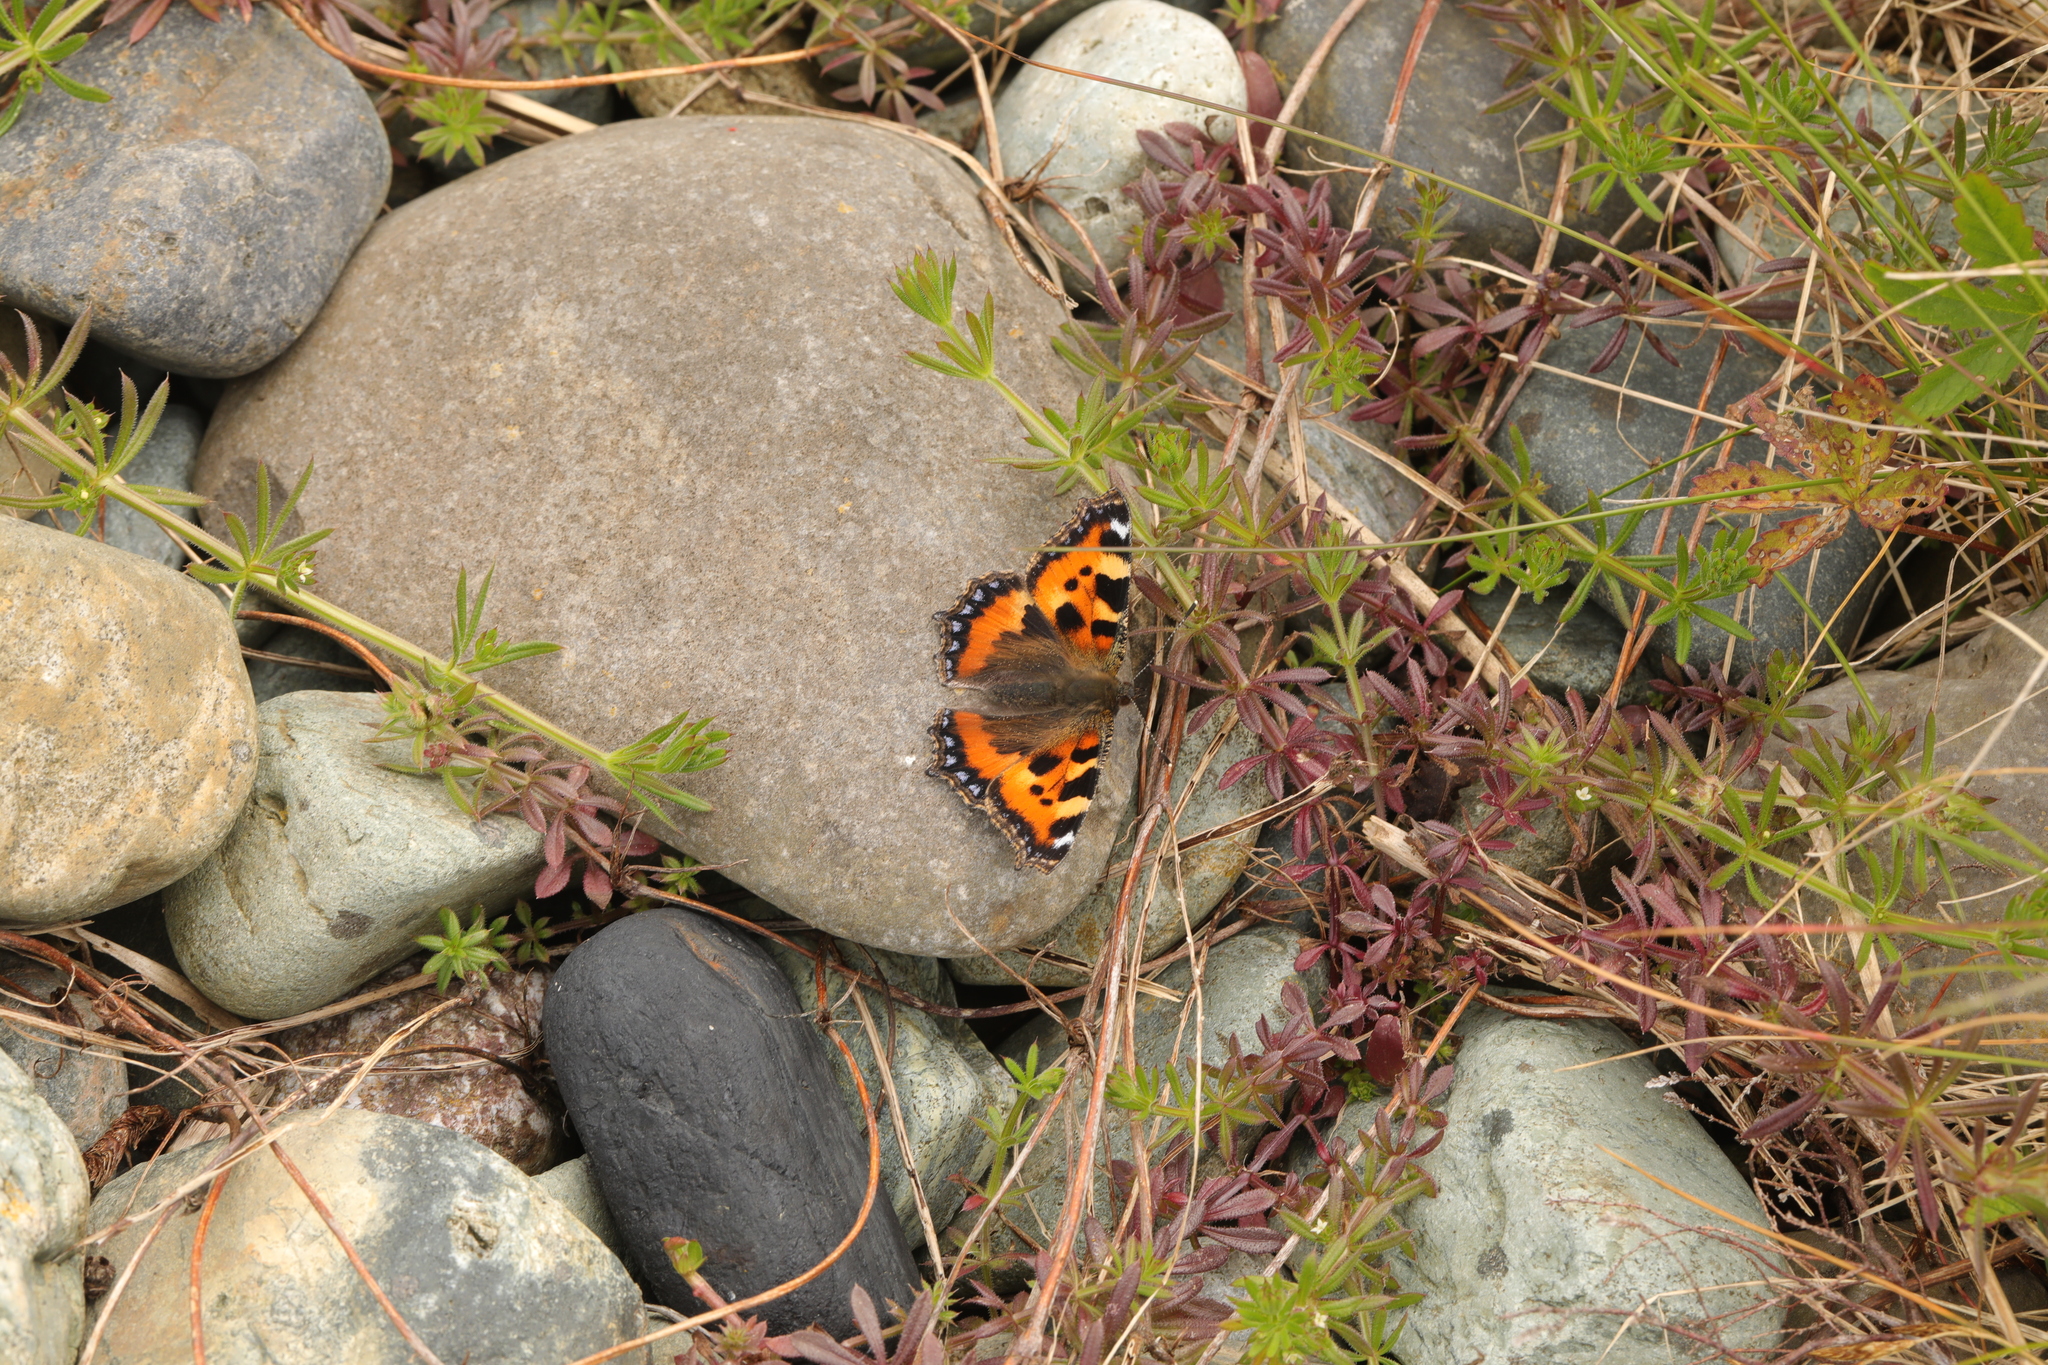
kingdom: Animalia
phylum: Arthropoda
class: Insecta
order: Lepidoptera
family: Nymphalidae
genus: Aglais
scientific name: Aglais urticae
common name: Small tortoiseshell
